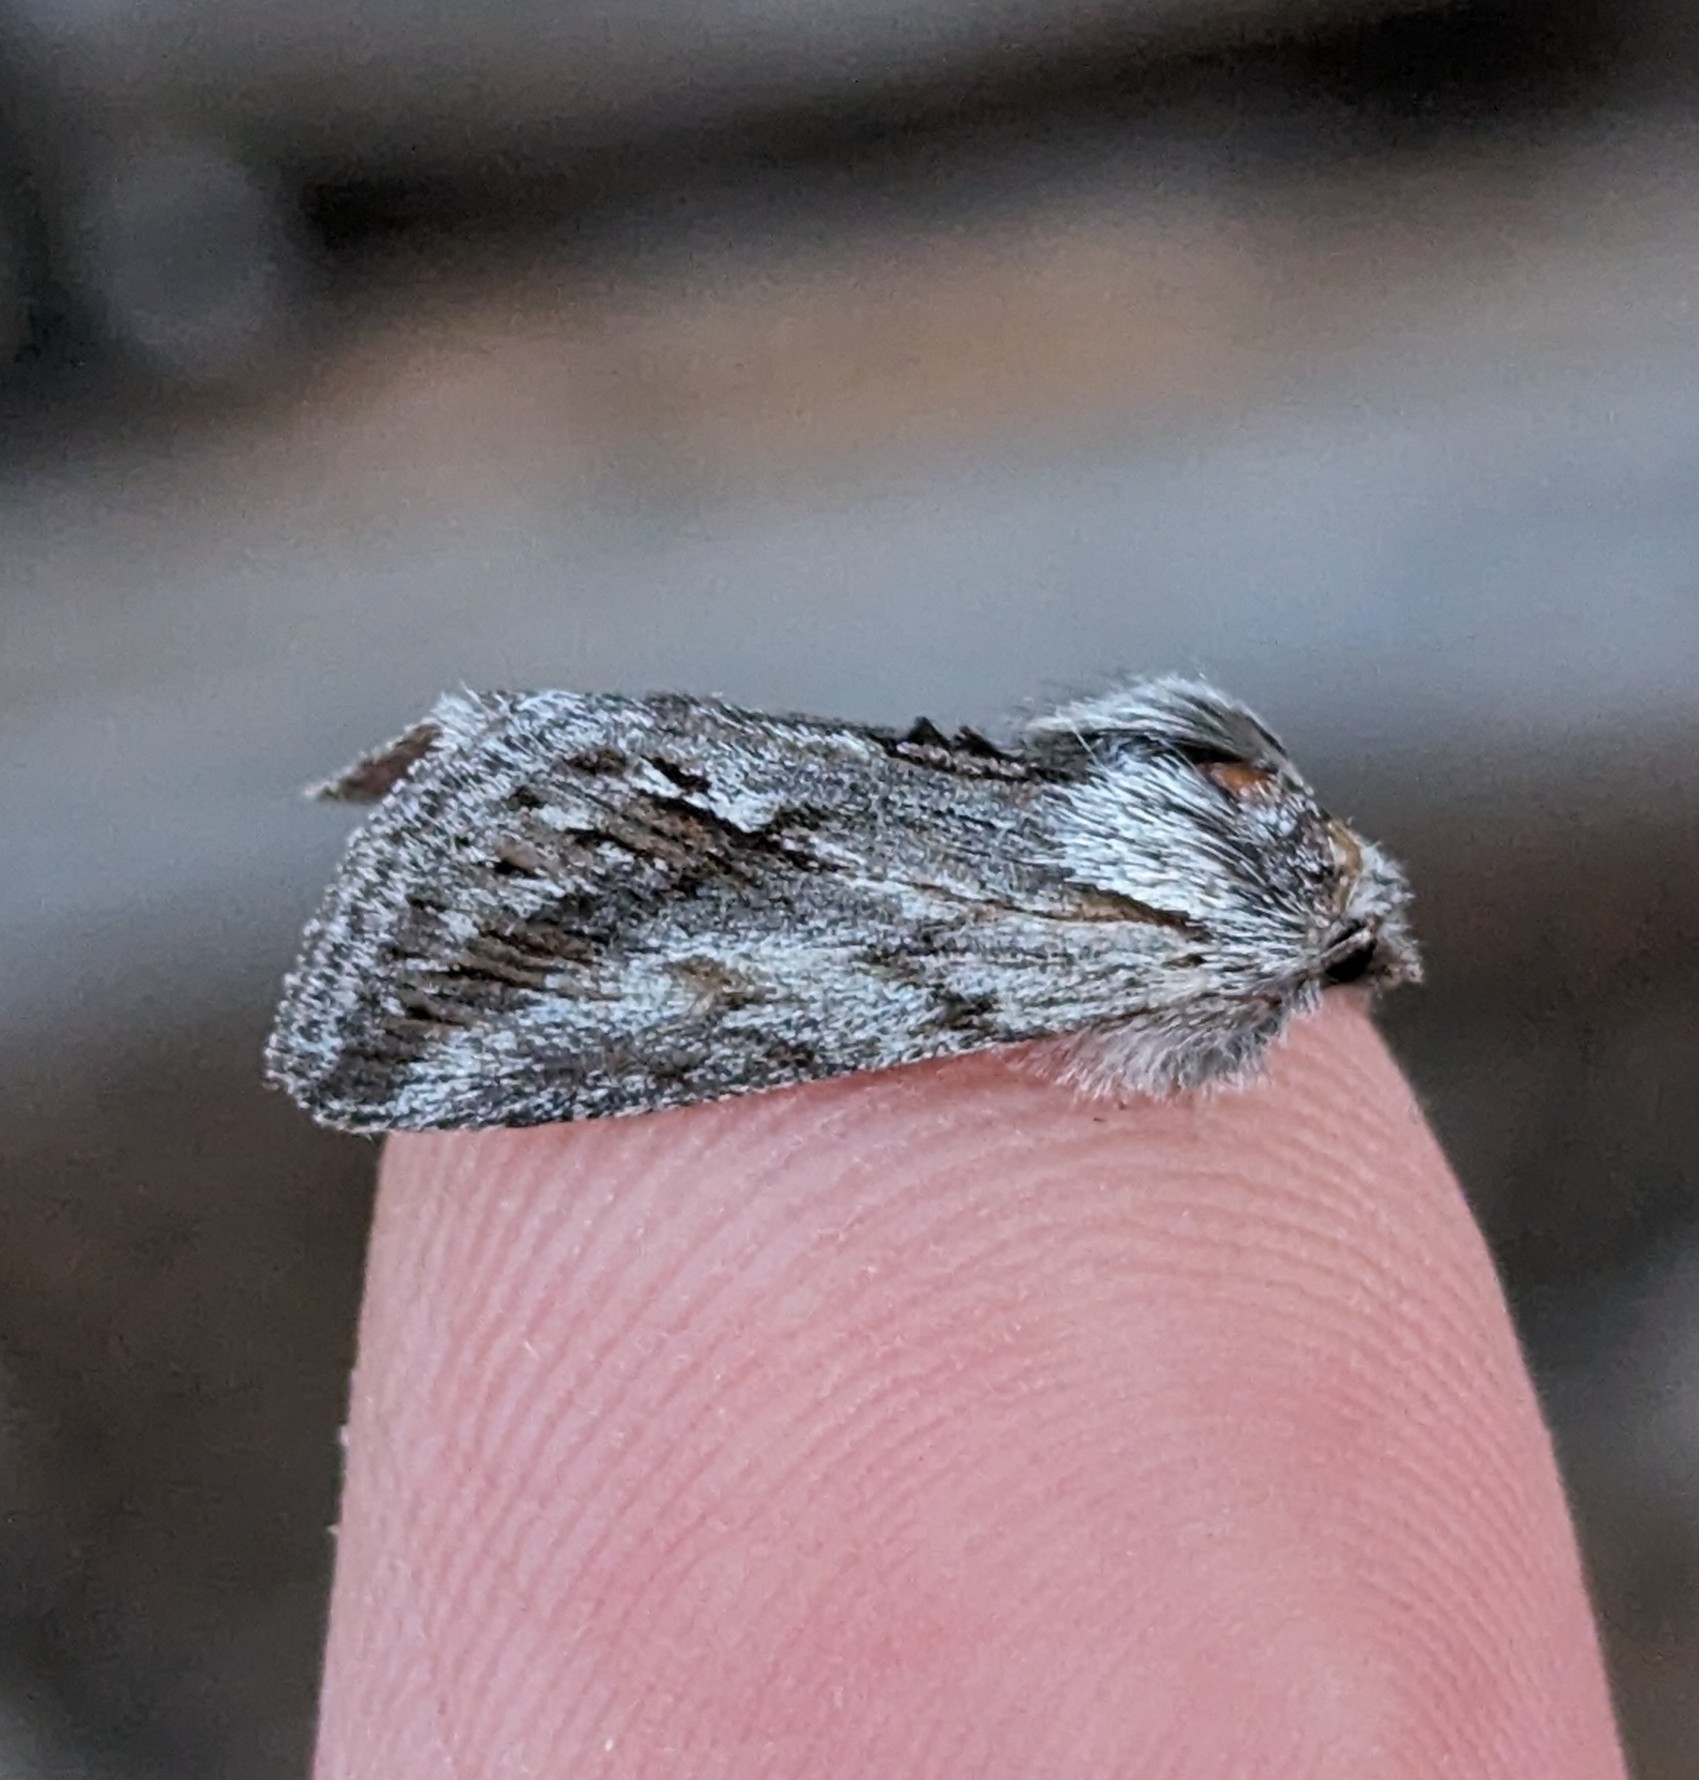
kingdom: Animalia
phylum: Arthropoda
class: Insecta
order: Lepidoptera
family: Noctuidae
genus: Pleromelloida
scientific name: Pleromelloida cinerea
